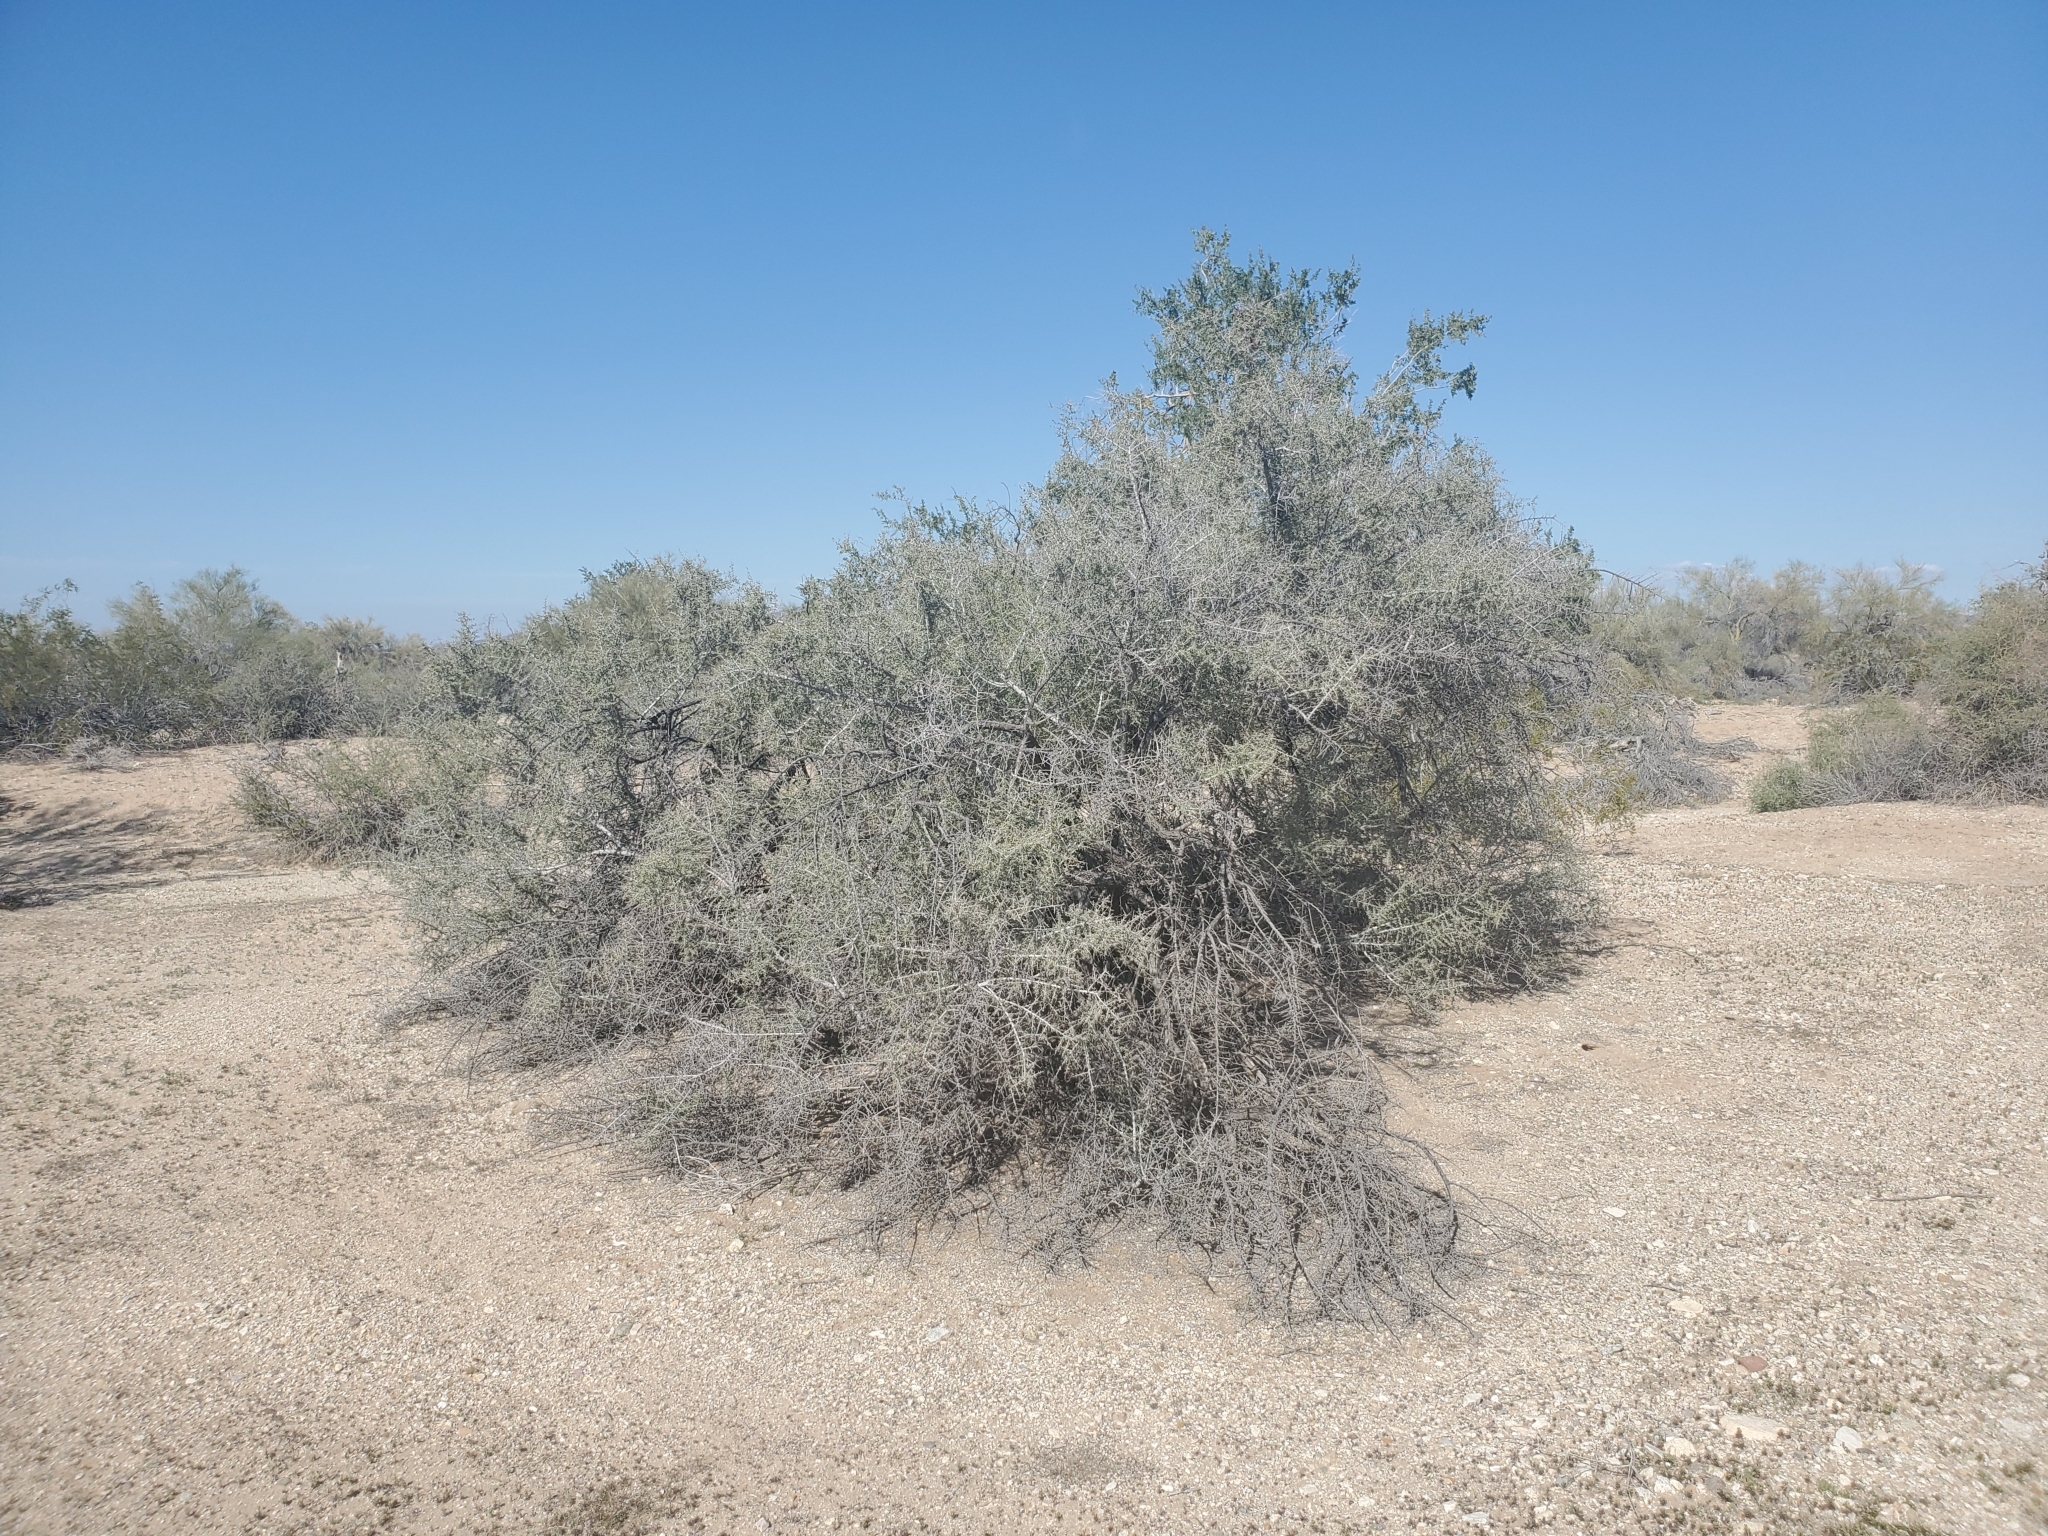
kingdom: Plantae
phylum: Tracheophyta
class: Magnoliopsida
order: Rosales
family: Rhamnaceae
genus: Condalia
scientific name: Condalia globosa
